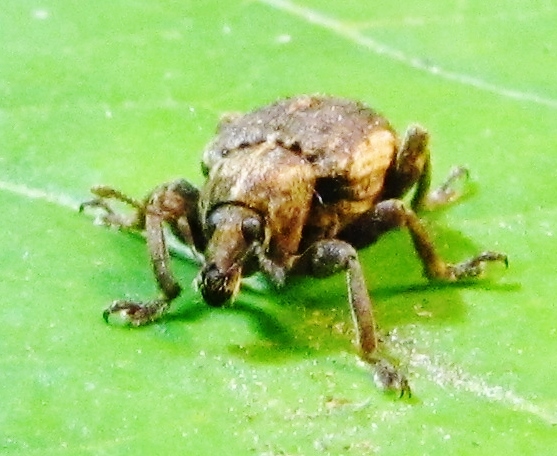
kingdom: Animalia
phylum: Arthropoda
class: Insecta
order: Coleoptera
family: Curculionidae
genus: Brachypera
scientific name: Brachypera zoilus
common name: Clover leaf weevil
